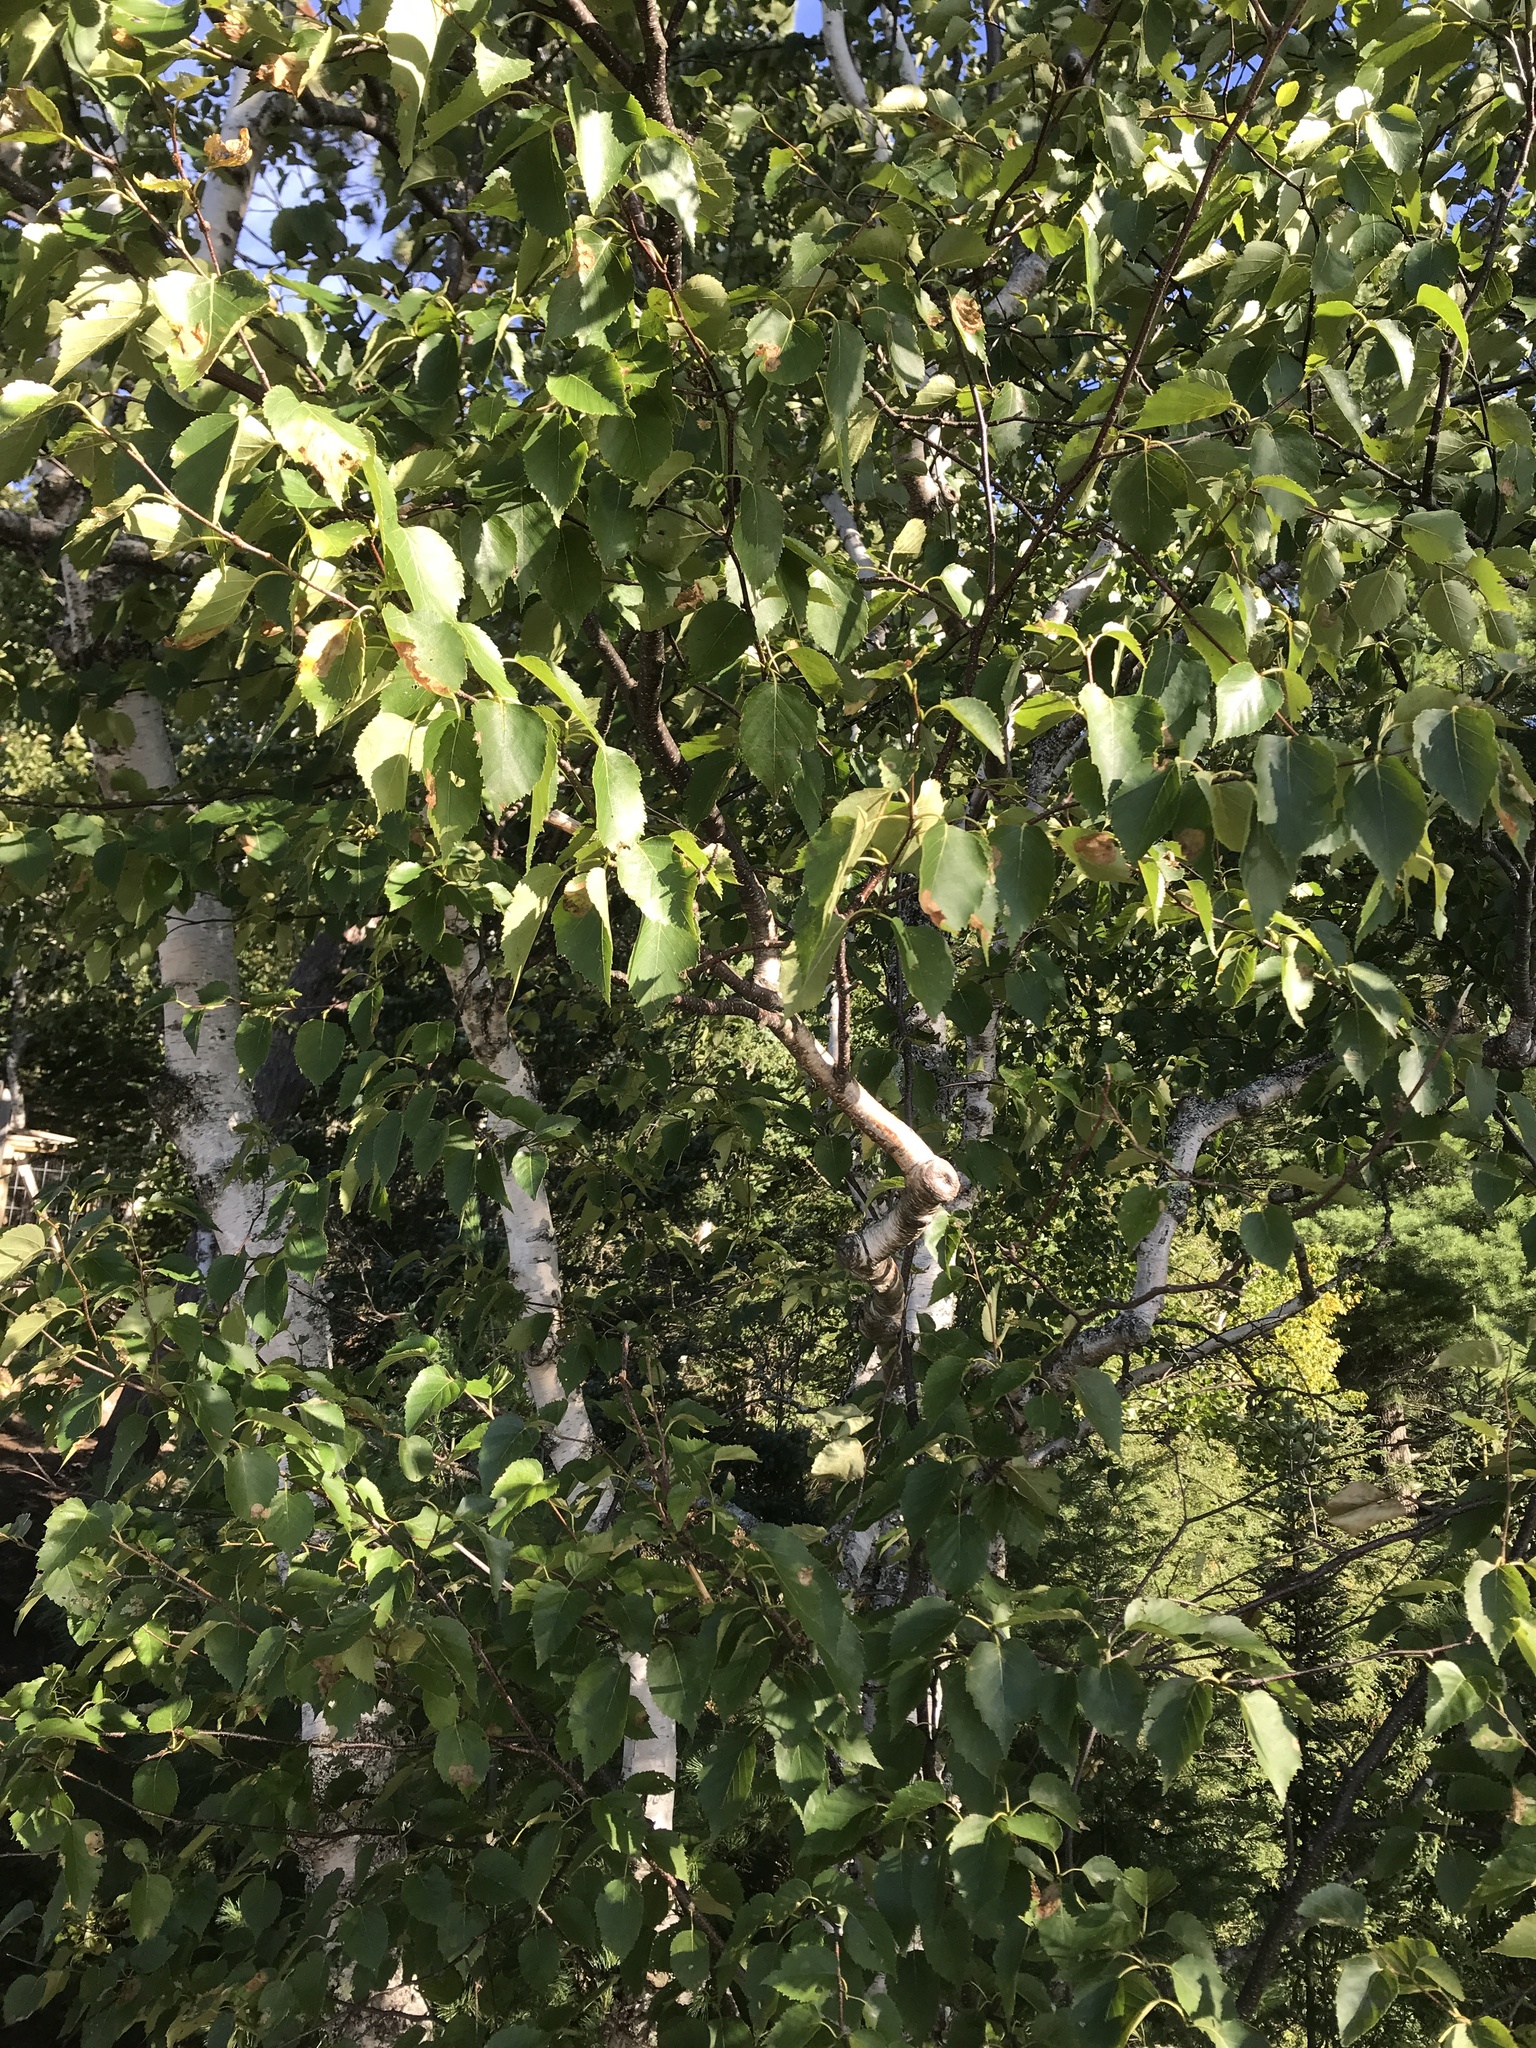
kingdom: Plantae
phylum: Tracheophyta
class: Magnoliopsida
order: Fagales
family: Betulaceae
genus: Betula
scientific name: Betula papyrifera
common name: Paper birch
